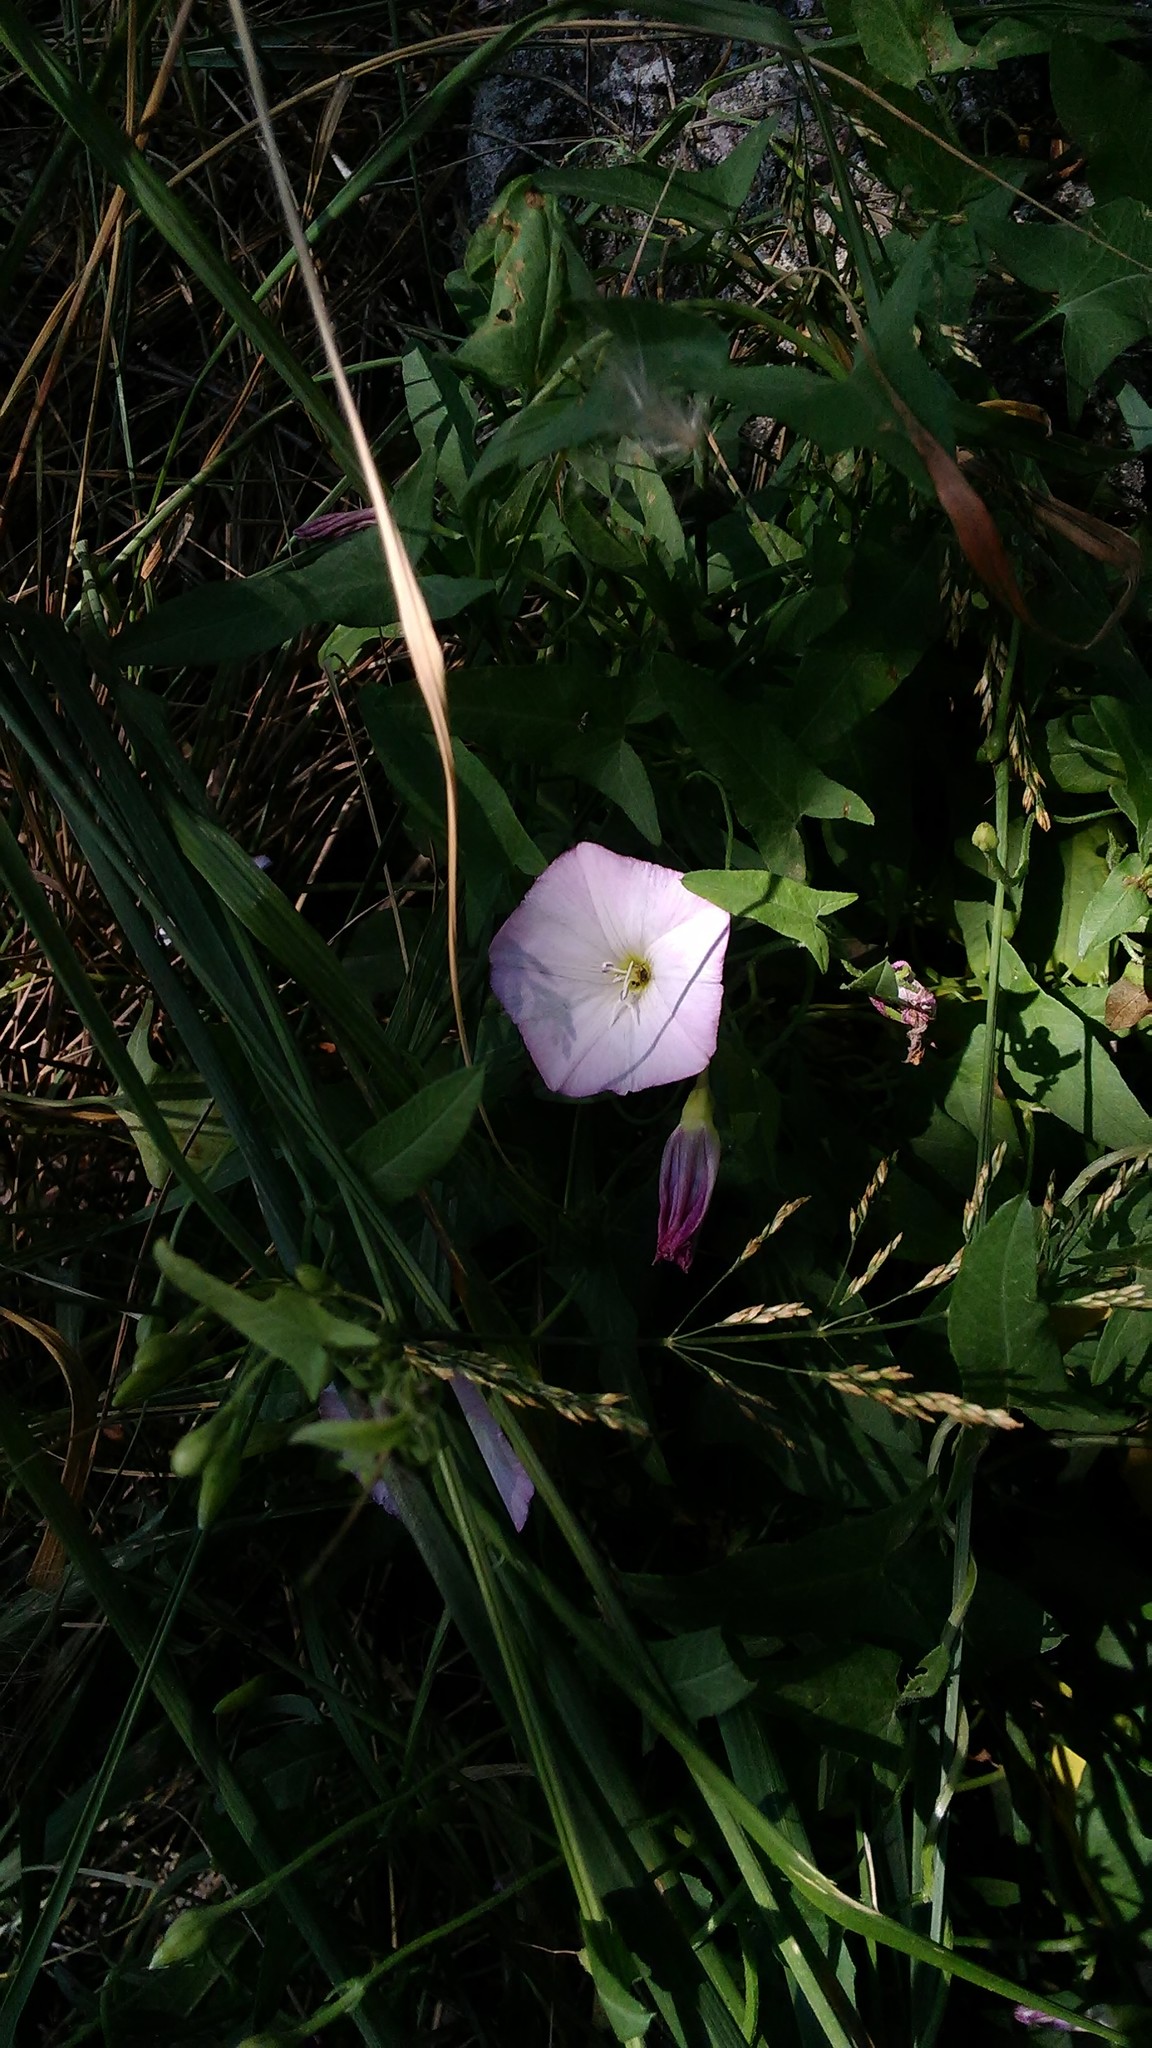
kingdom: Plantae
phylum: Tracheophyta
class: Magnoliopsida
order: Solanales
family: Convolvulaceae
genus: Convolvulus
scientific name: Convolvulus arvensis
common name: Field bindweed
